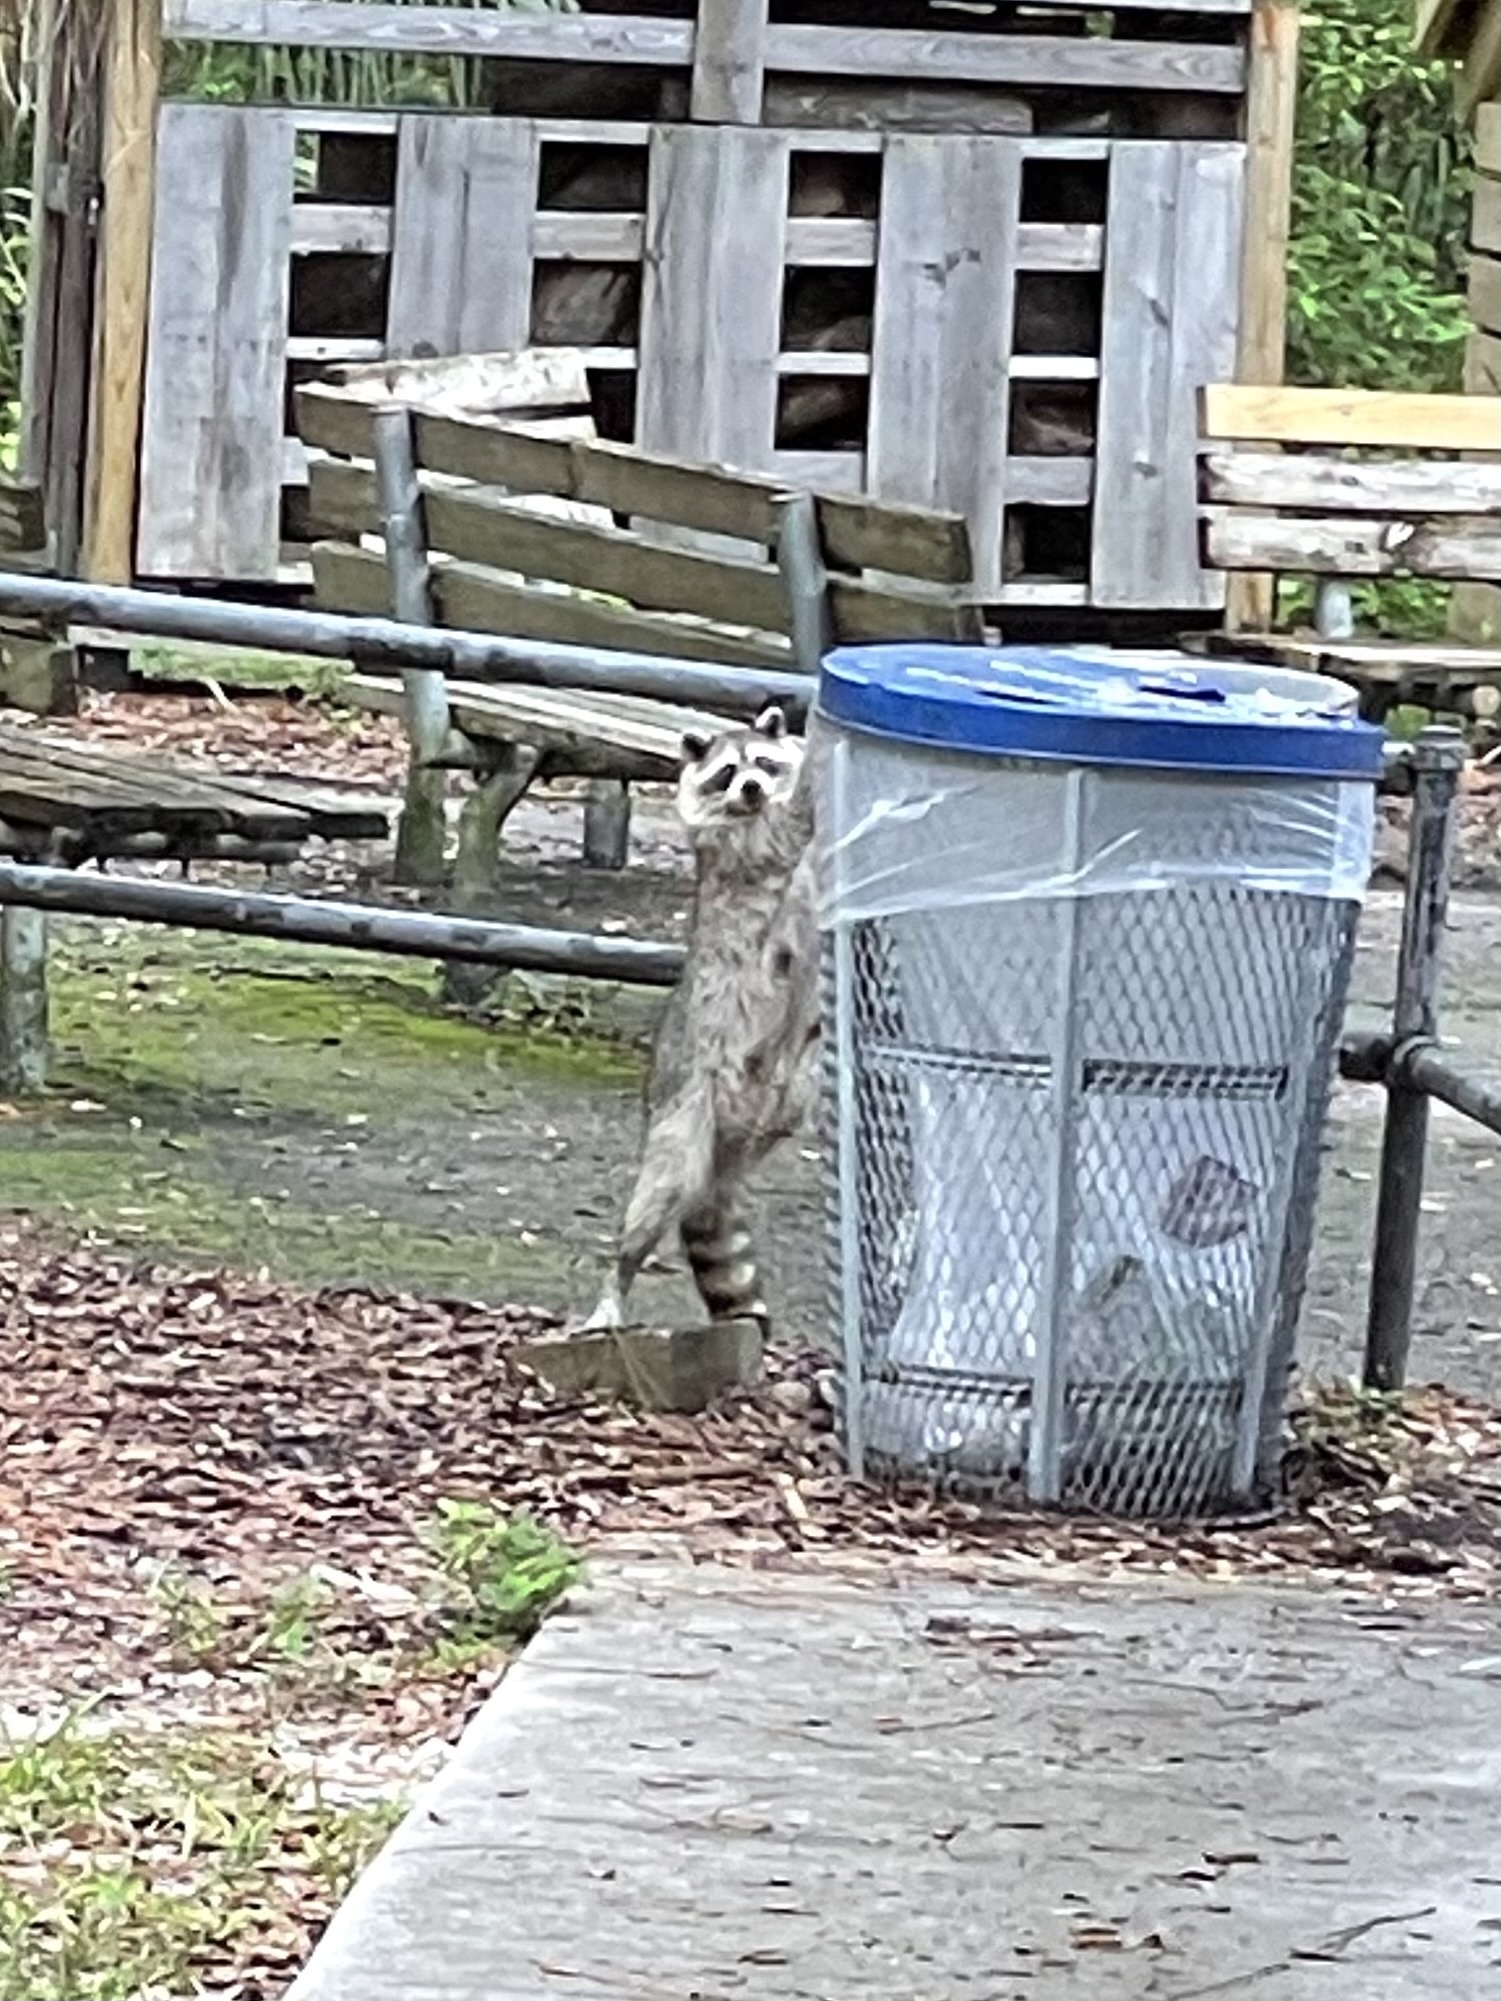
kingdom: Animalia
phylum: Chordata
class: Mammalia
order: Carnivora
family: Procyonidae
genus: Procyon
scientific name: Procyon lotor
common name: Raccoon
